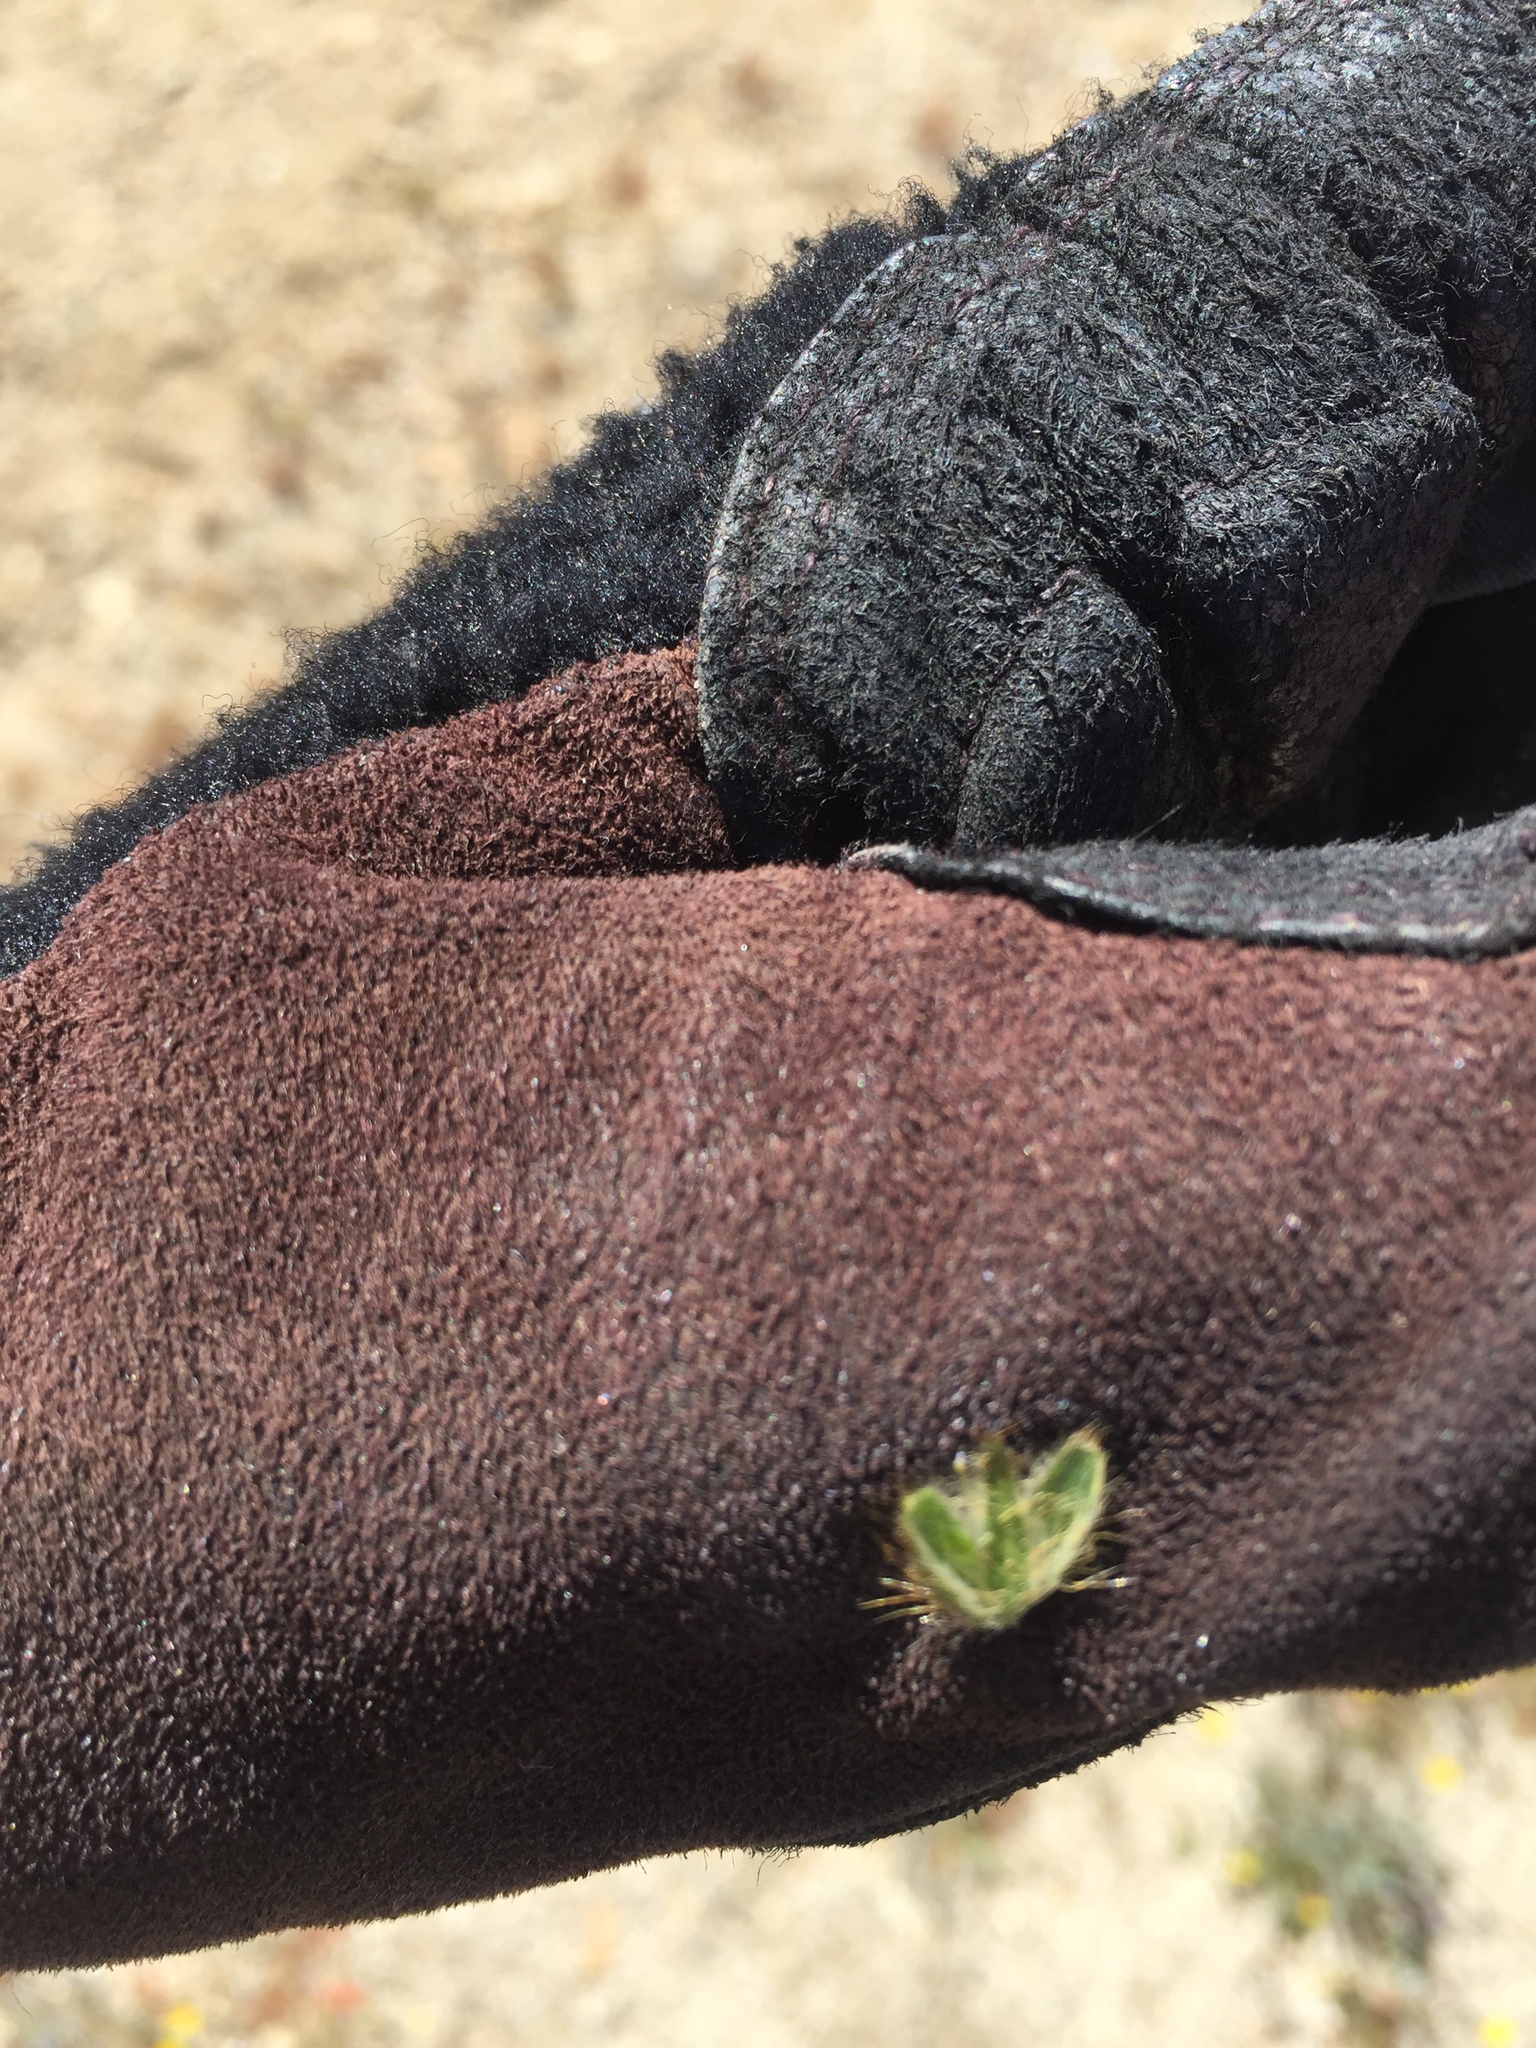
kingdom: Plantae
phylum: Tracheophyta
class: Magnoliopsida
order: Boraginales
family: Boraginaceae
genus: Amsinckia
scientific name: Amsinckia tessellata
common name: Tessellate fiddleneck
